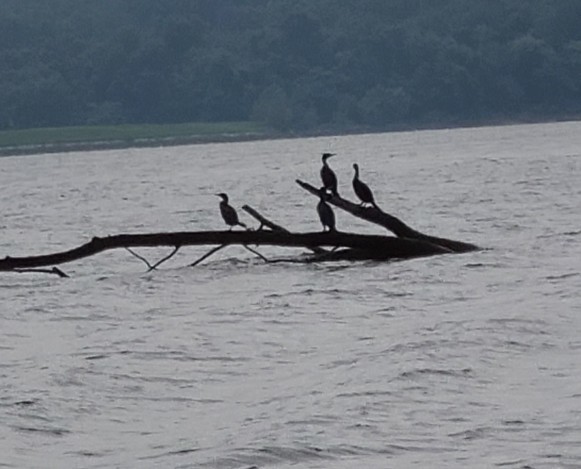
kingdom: Animalia
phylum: Chordata
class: Aves
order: Suliformes
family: Phalacrocoracidae
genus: Phalacrocorax
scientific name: Phalacrocorax auritus
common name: Double-crested cormorant
